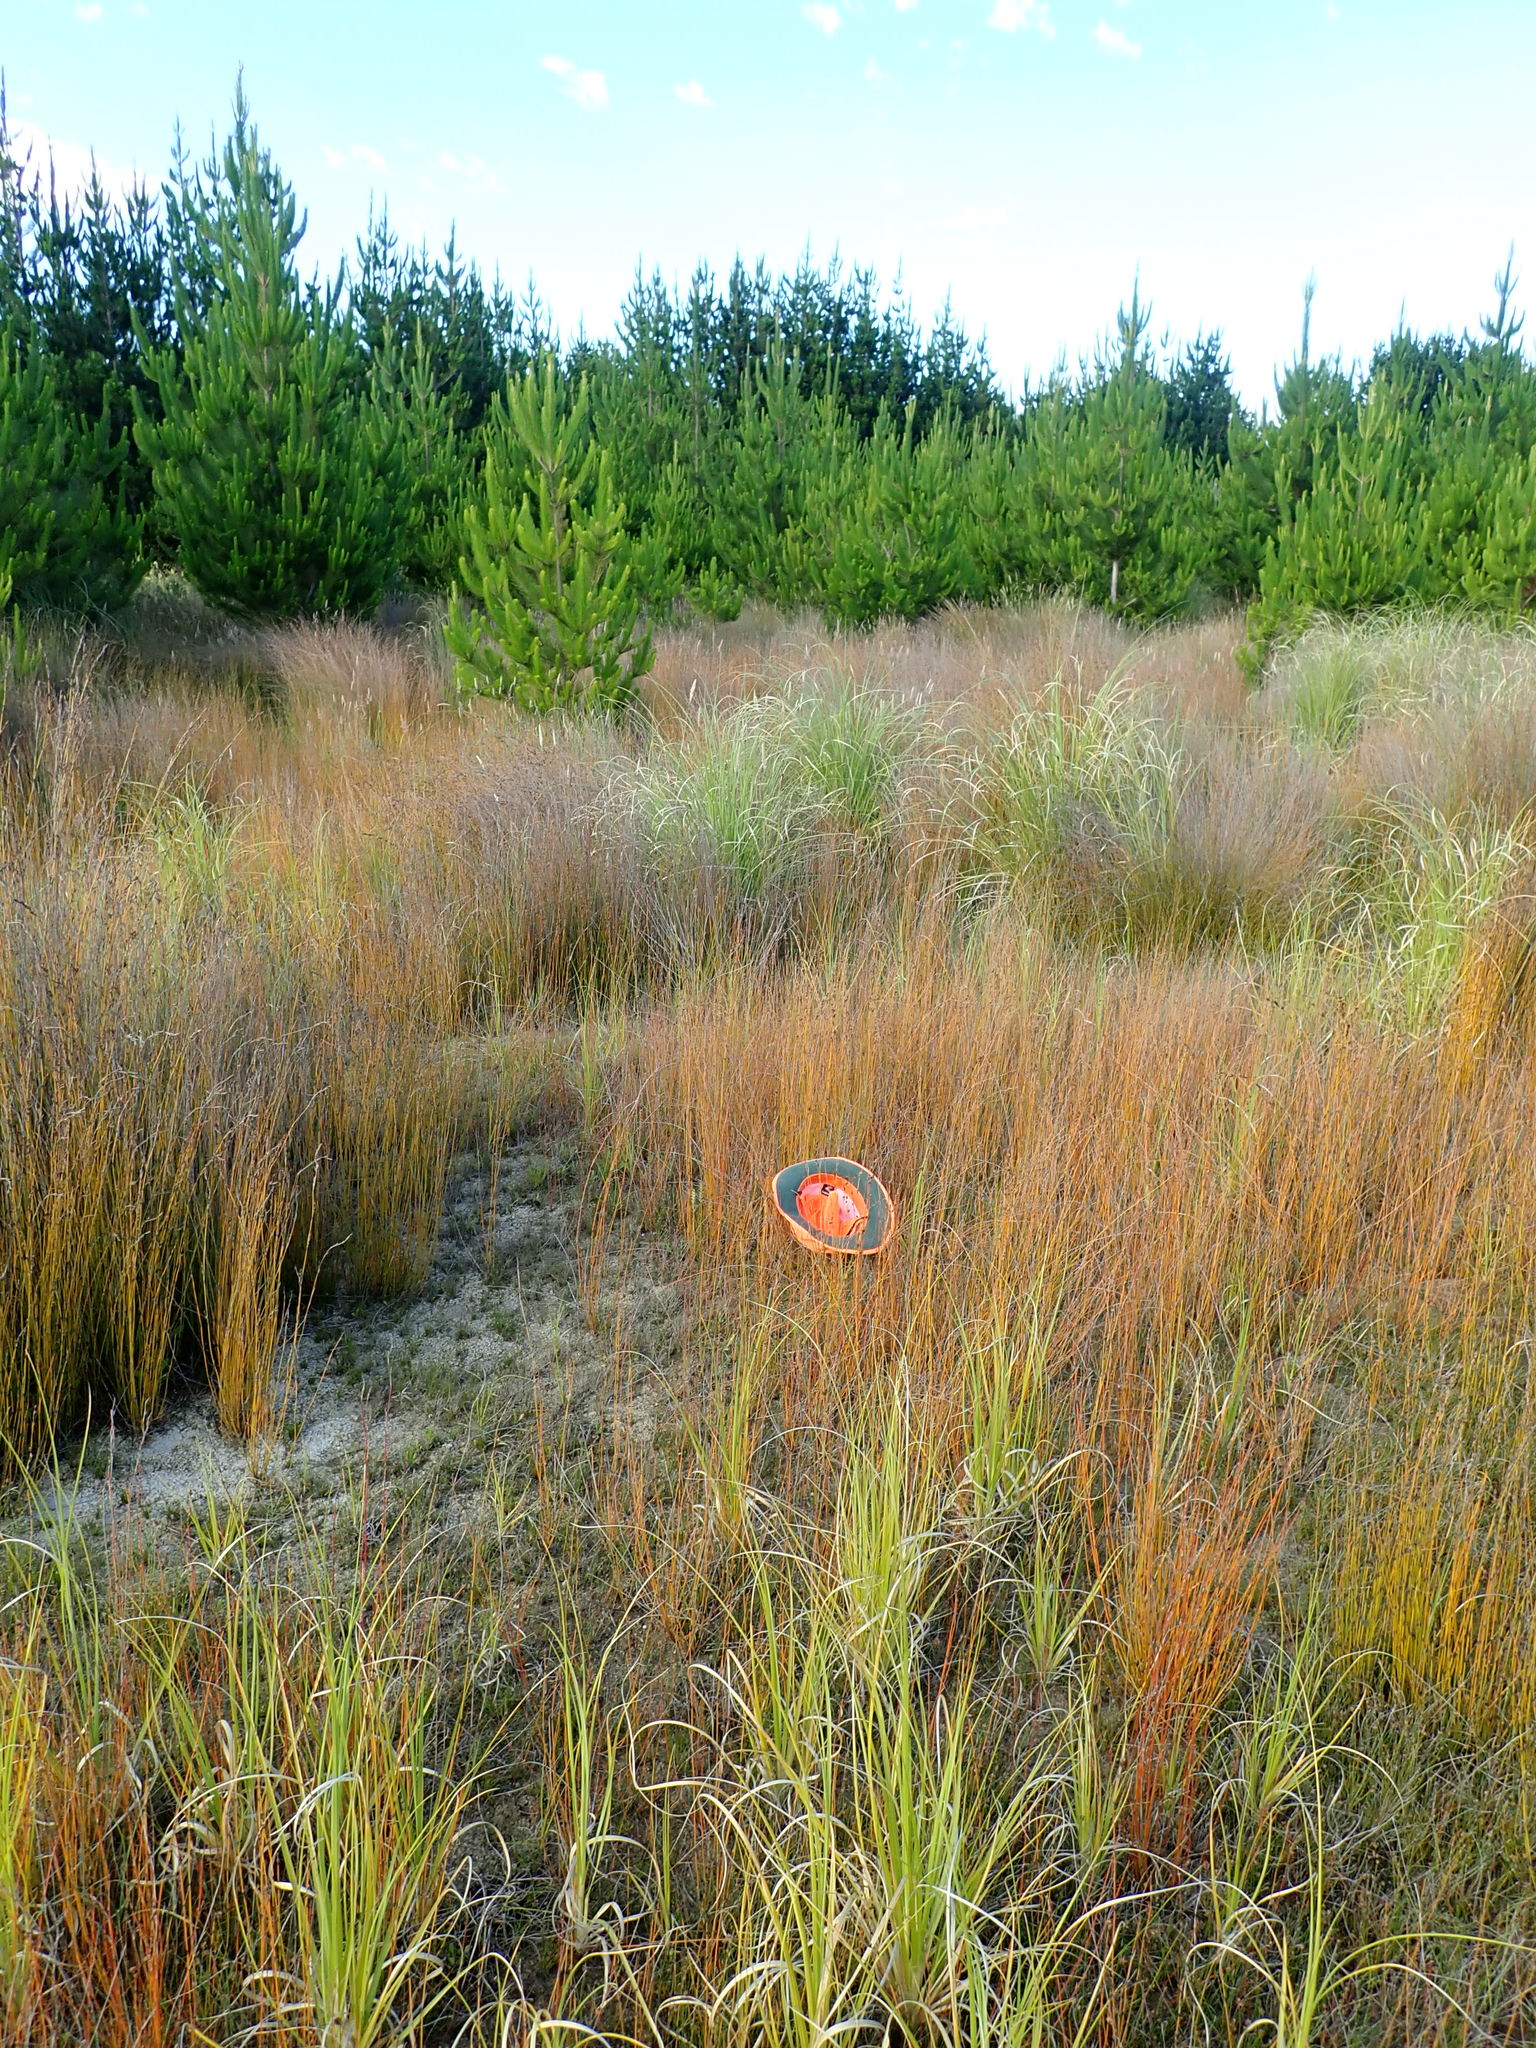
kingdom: Plantae
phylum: Tracheophyta
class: Liliopsida
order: Asparagales
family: Orchidaceae
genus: Microtis
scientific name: Microtis unifolia
